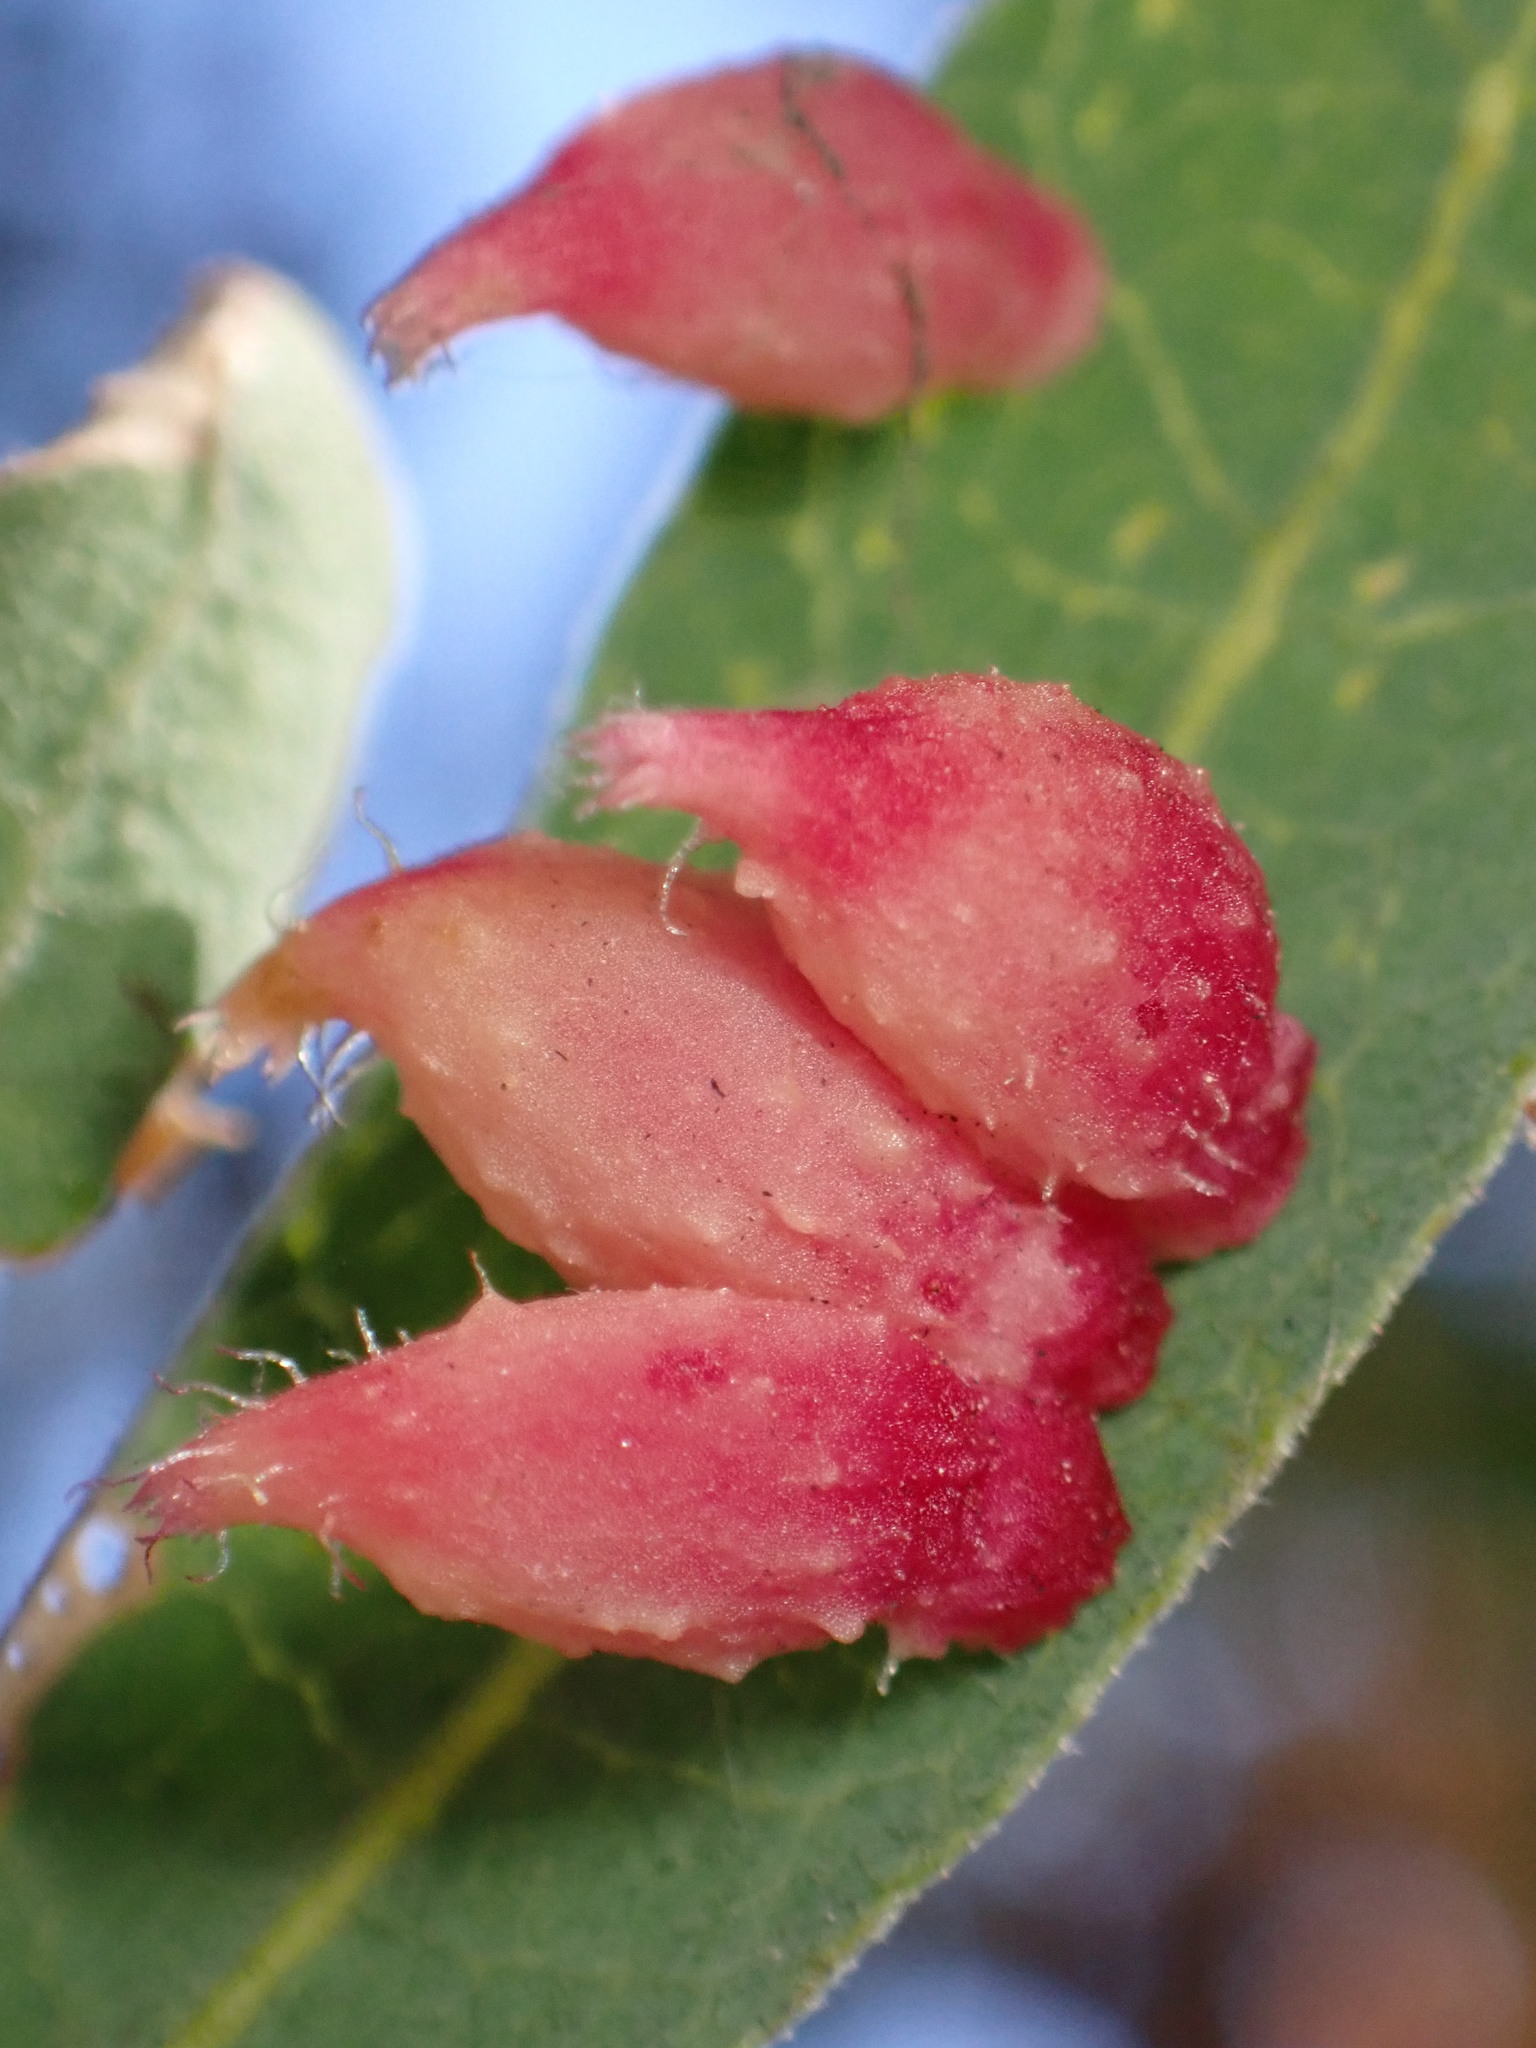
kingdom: Animalia
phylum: Arthropoda
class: Insecta
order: Hymenoptera
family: Cynipidae
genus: Andricus
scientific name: Andricus
